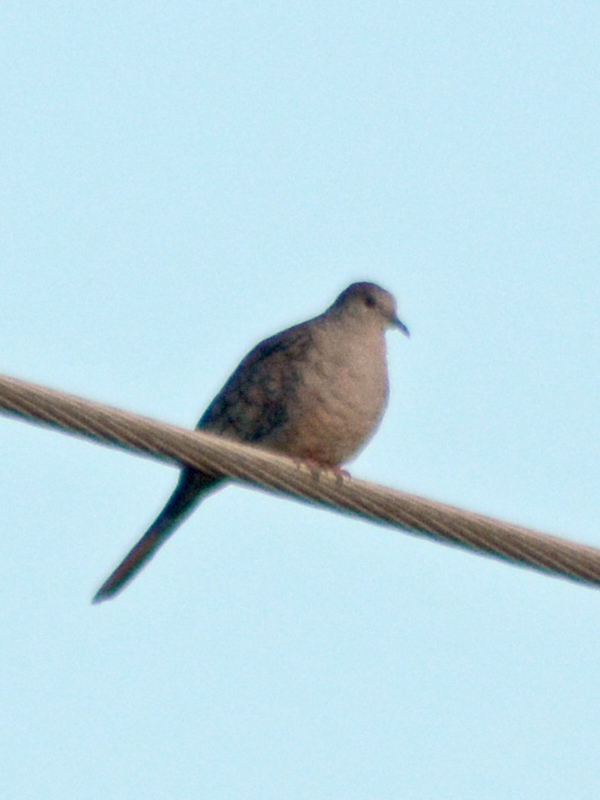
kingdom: Animalia
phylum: Chordata
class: Aves
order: Columbiformes
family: Columbidae
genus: Columbina
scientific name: Columbina inca
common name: Inca dove
